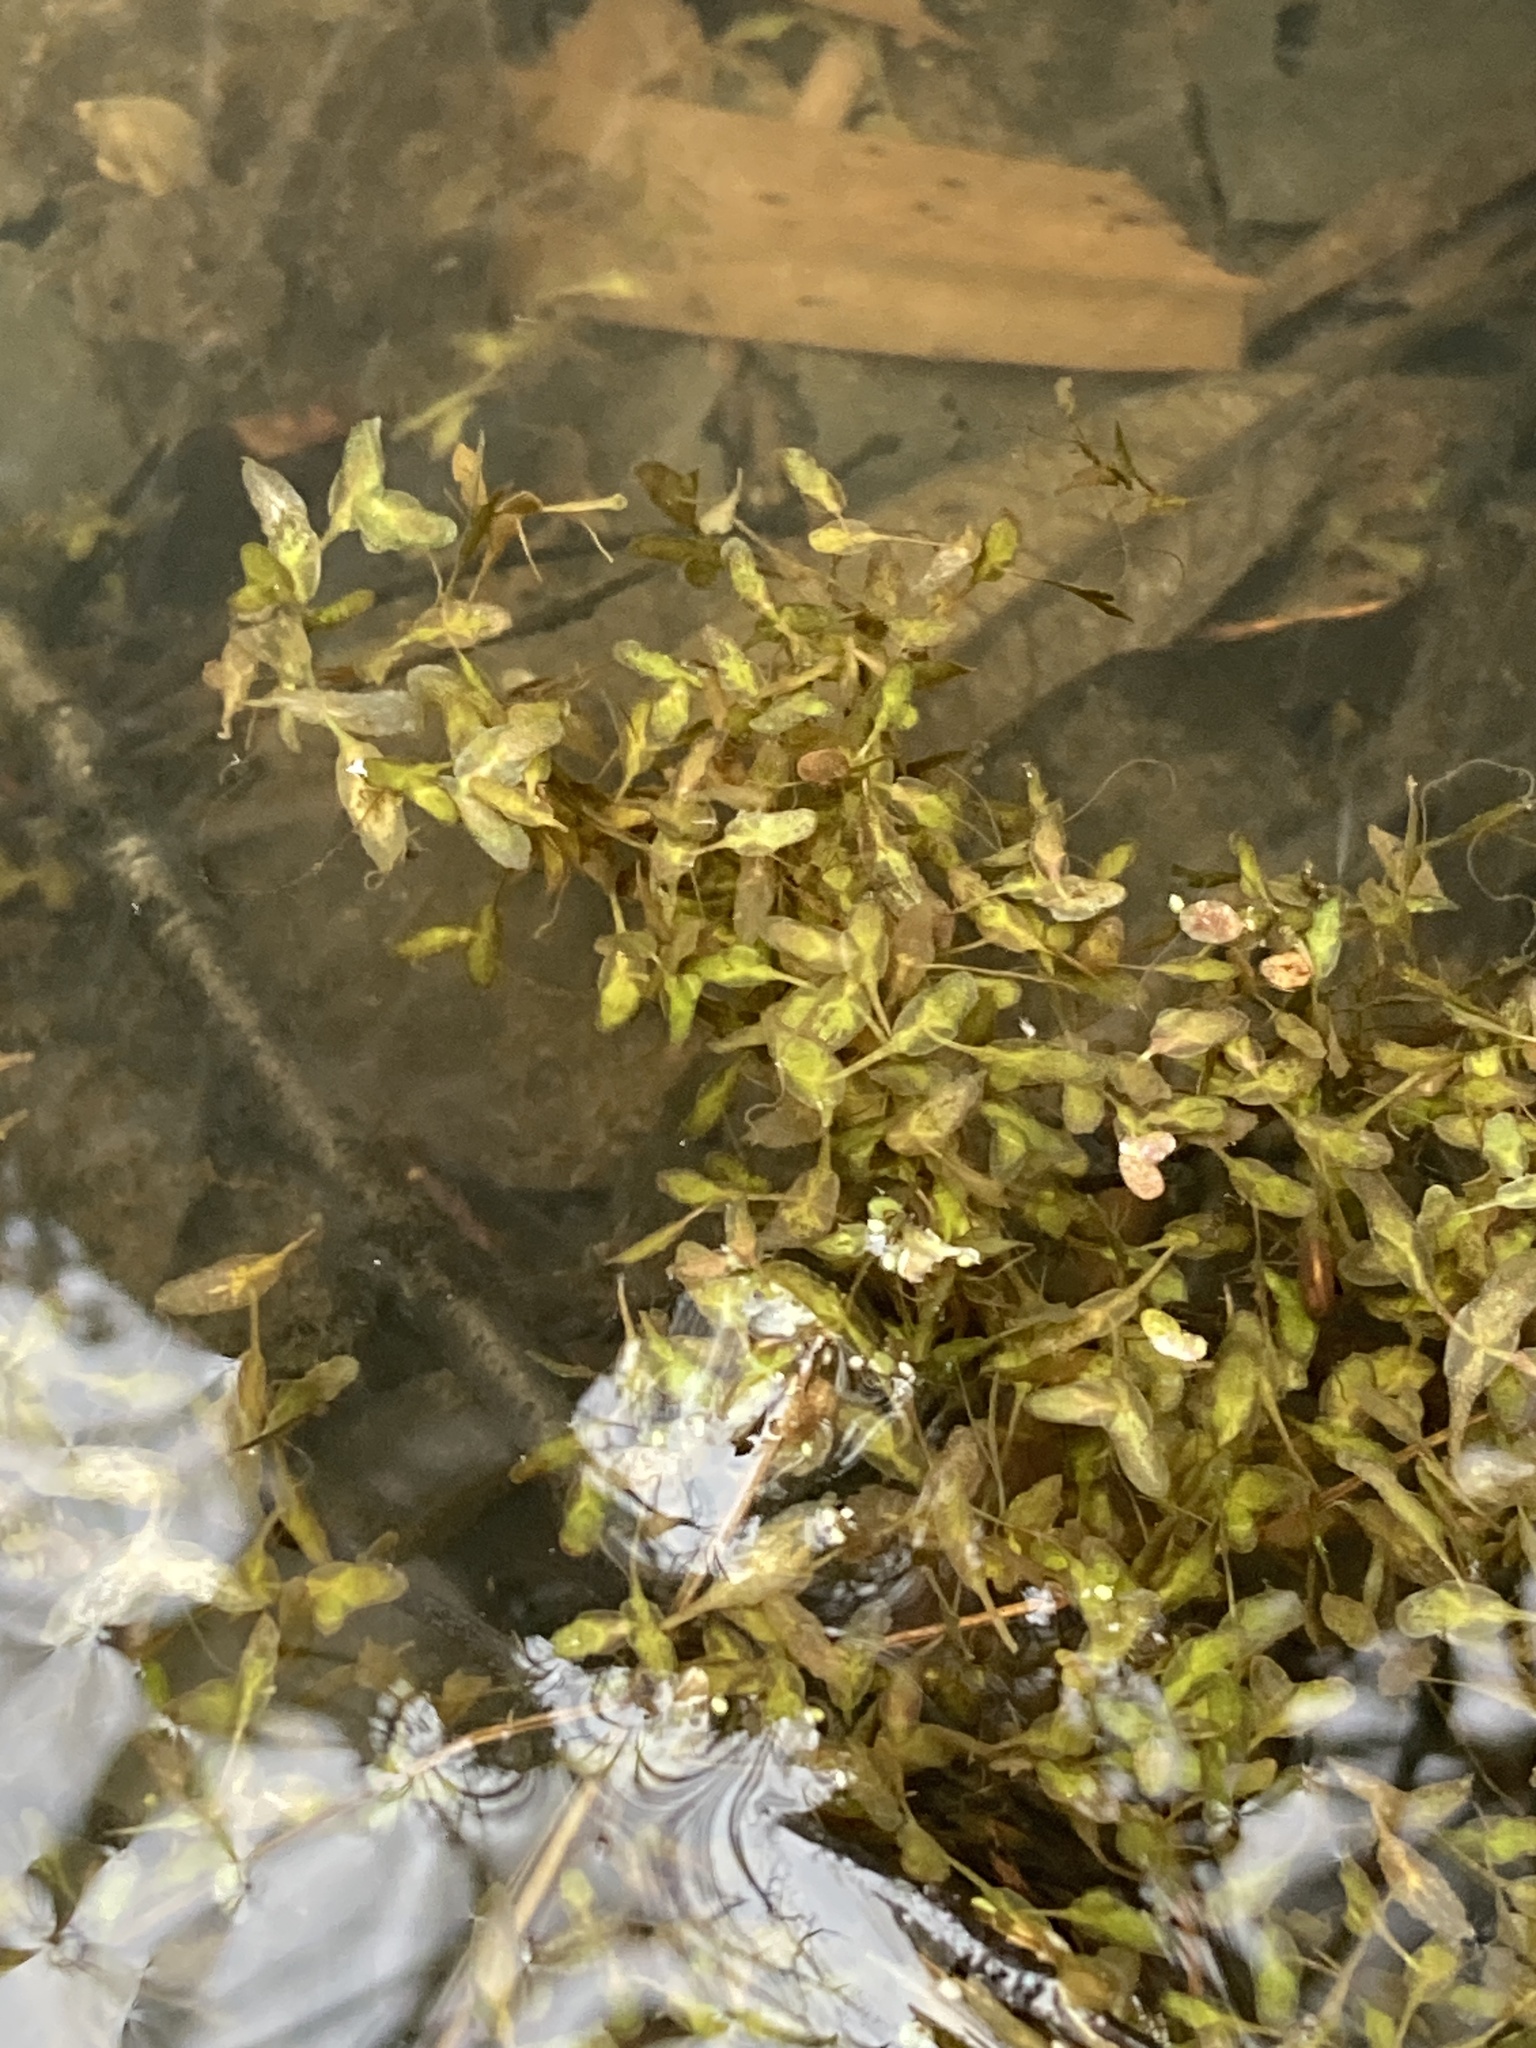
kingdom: Plantae
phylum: Tracheophyta
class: Liliopsida
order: Alismatales
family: Araceae
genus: Lemna
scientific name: Lemna trisulca
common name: Ivy-leaved duckweed
